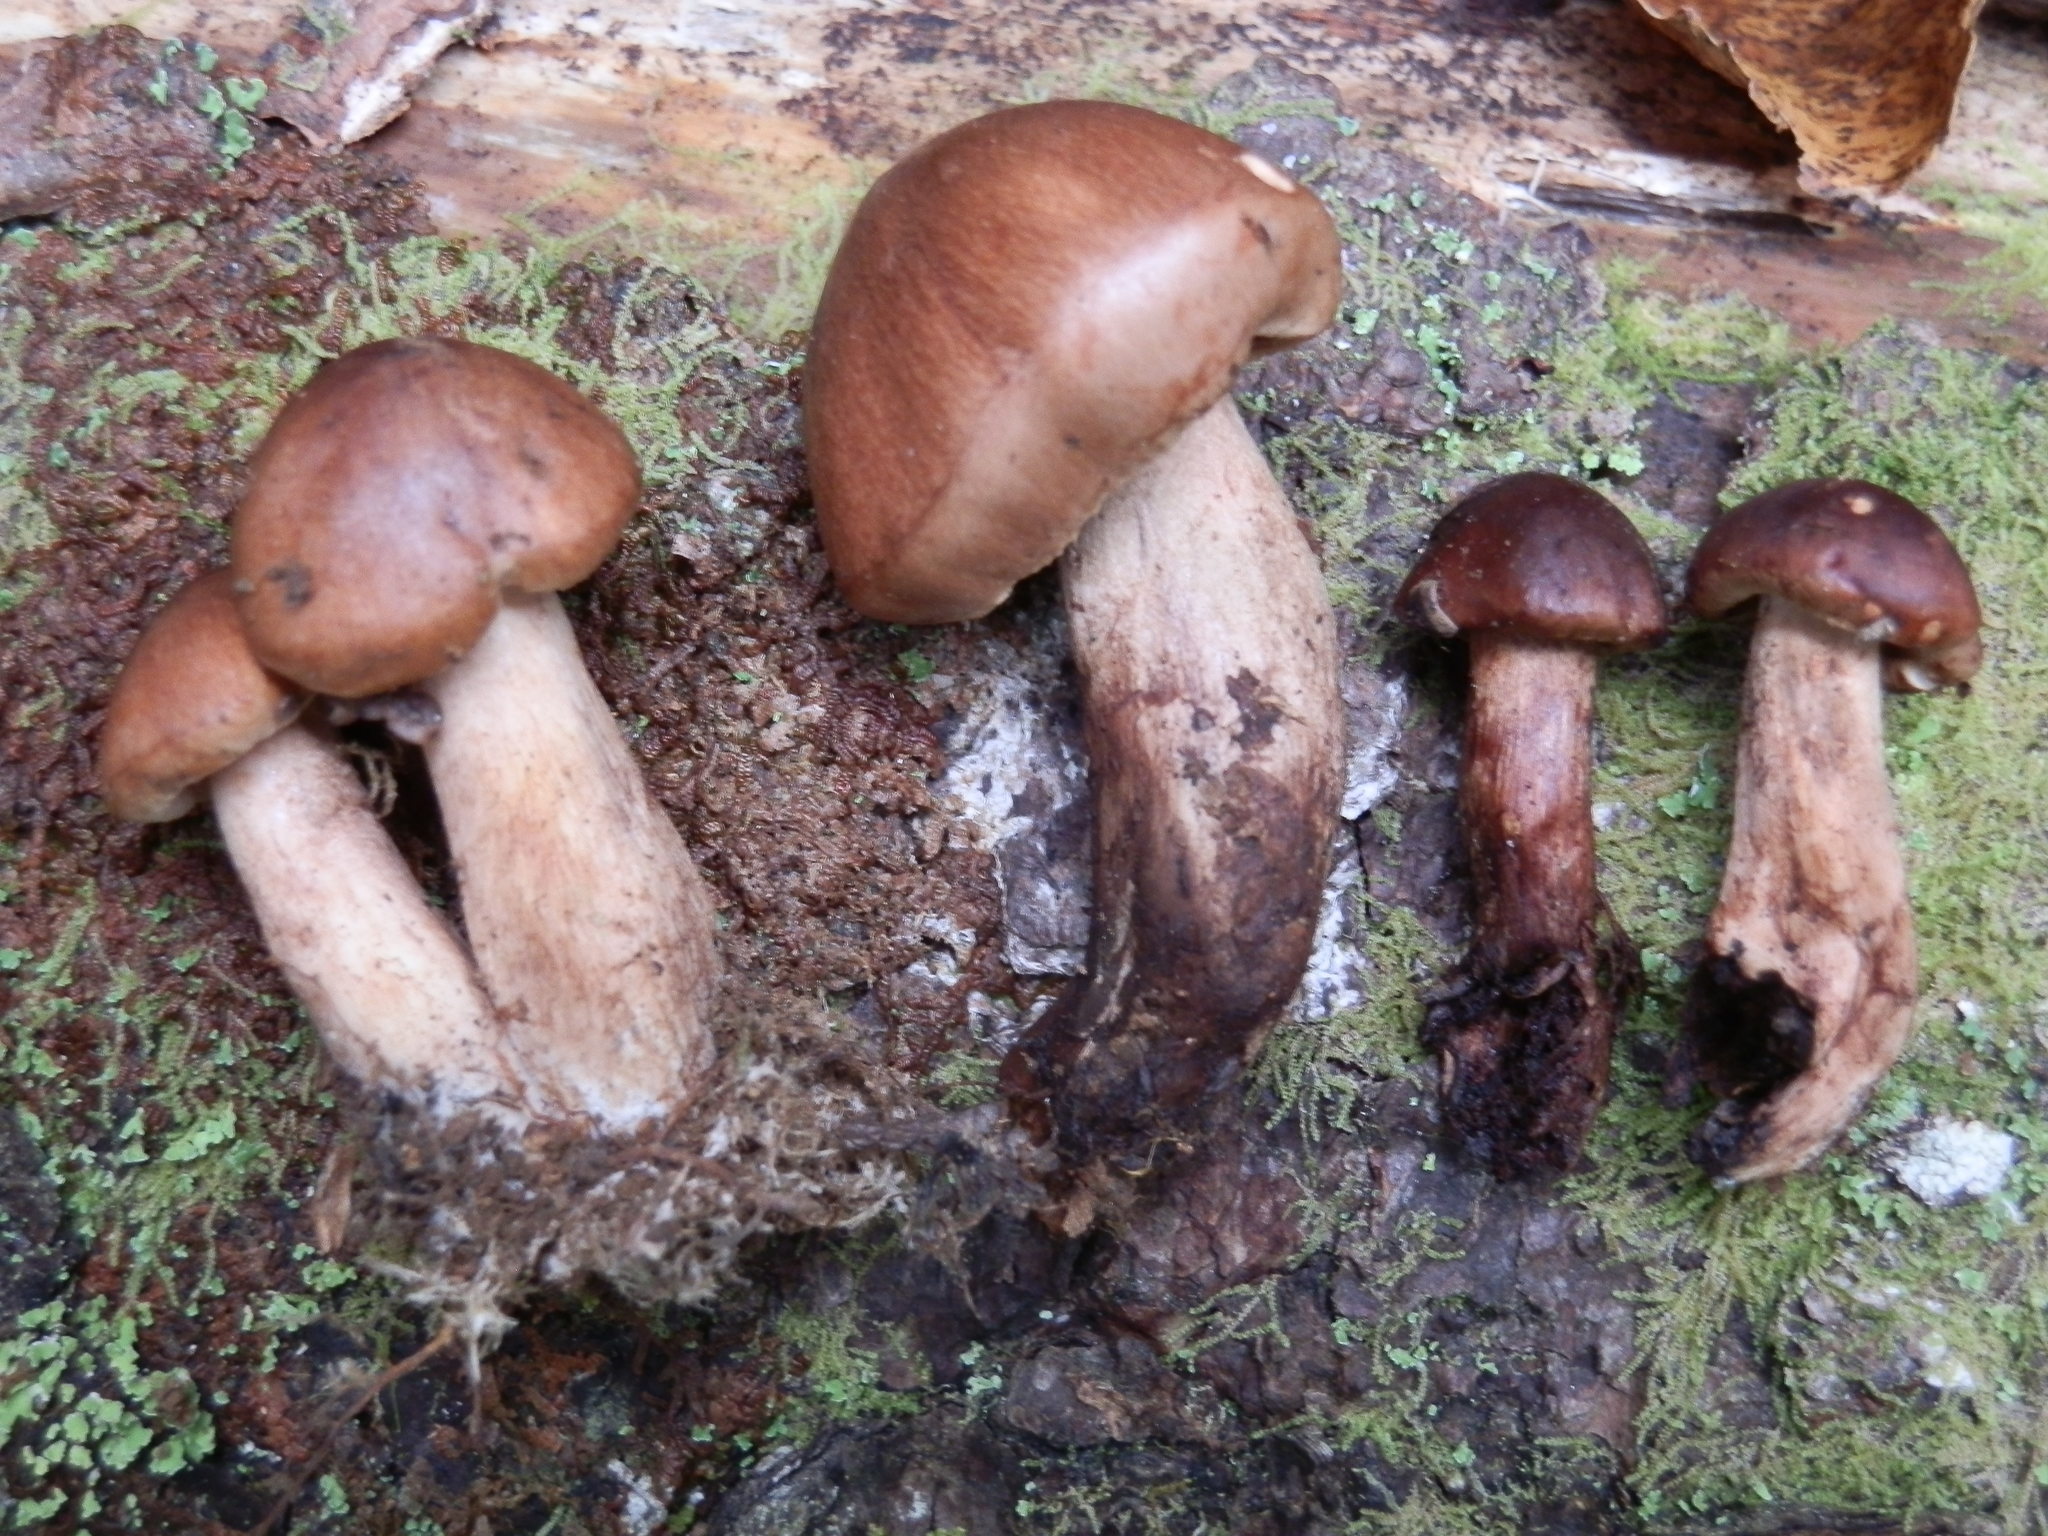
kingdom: Fungi
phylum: Basidiomycota
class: Agaricomycetes
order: Agaricales
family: Tricholomataceae
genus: Tricholoma
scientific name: Tricholoma transmutans
